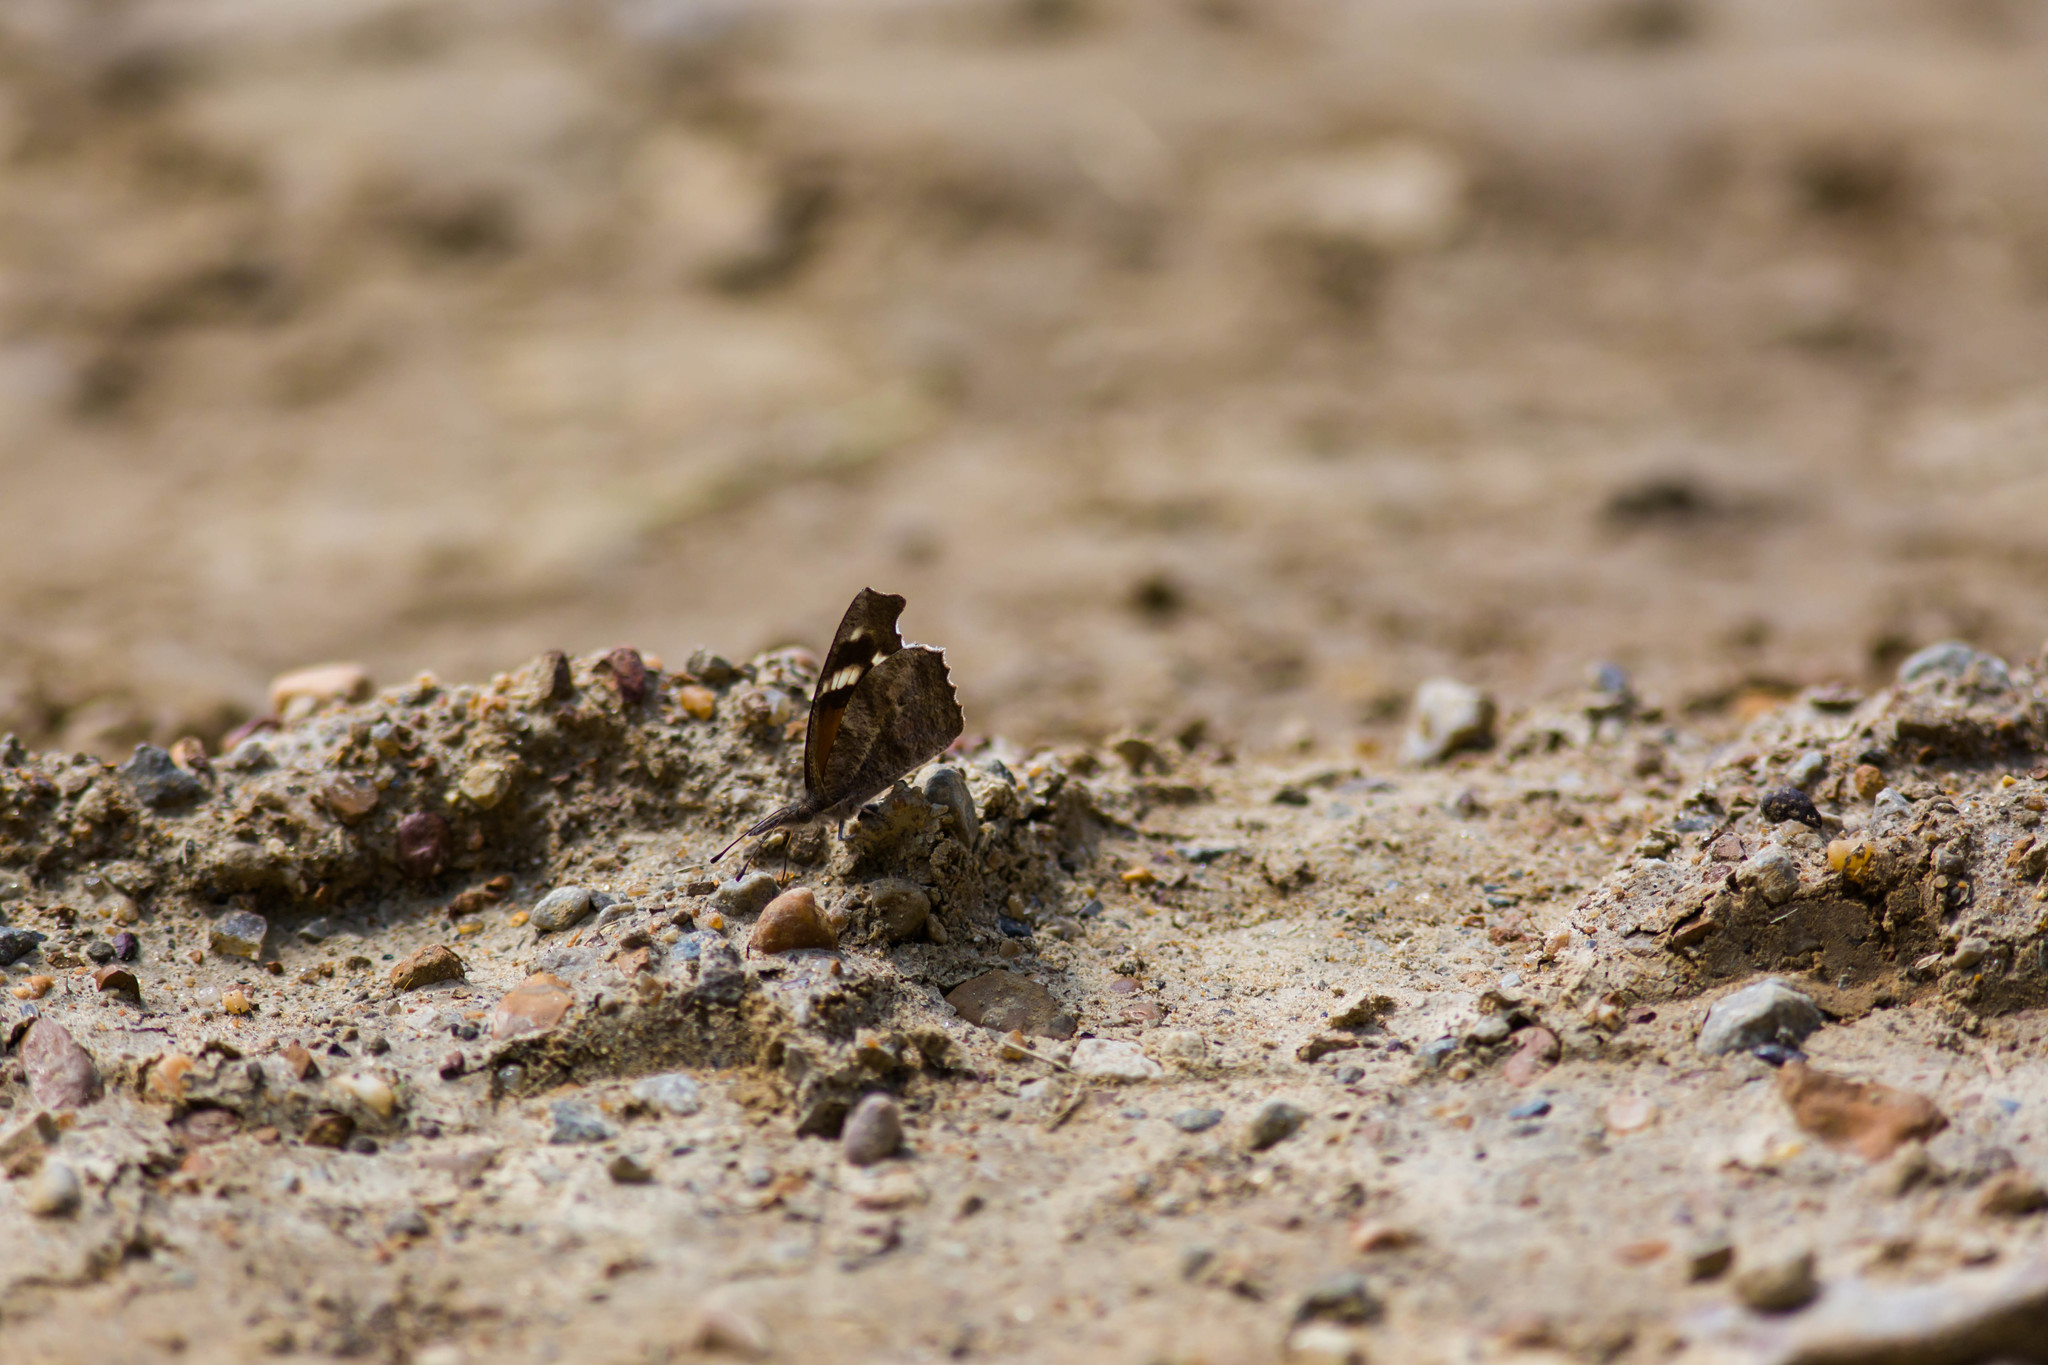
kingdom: Animalia
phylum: Arthropoda
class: Insecta
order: Lepidoptera
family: Nymphalidae
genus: Libytheana
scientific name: Libytheana carinenta
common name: American snout
